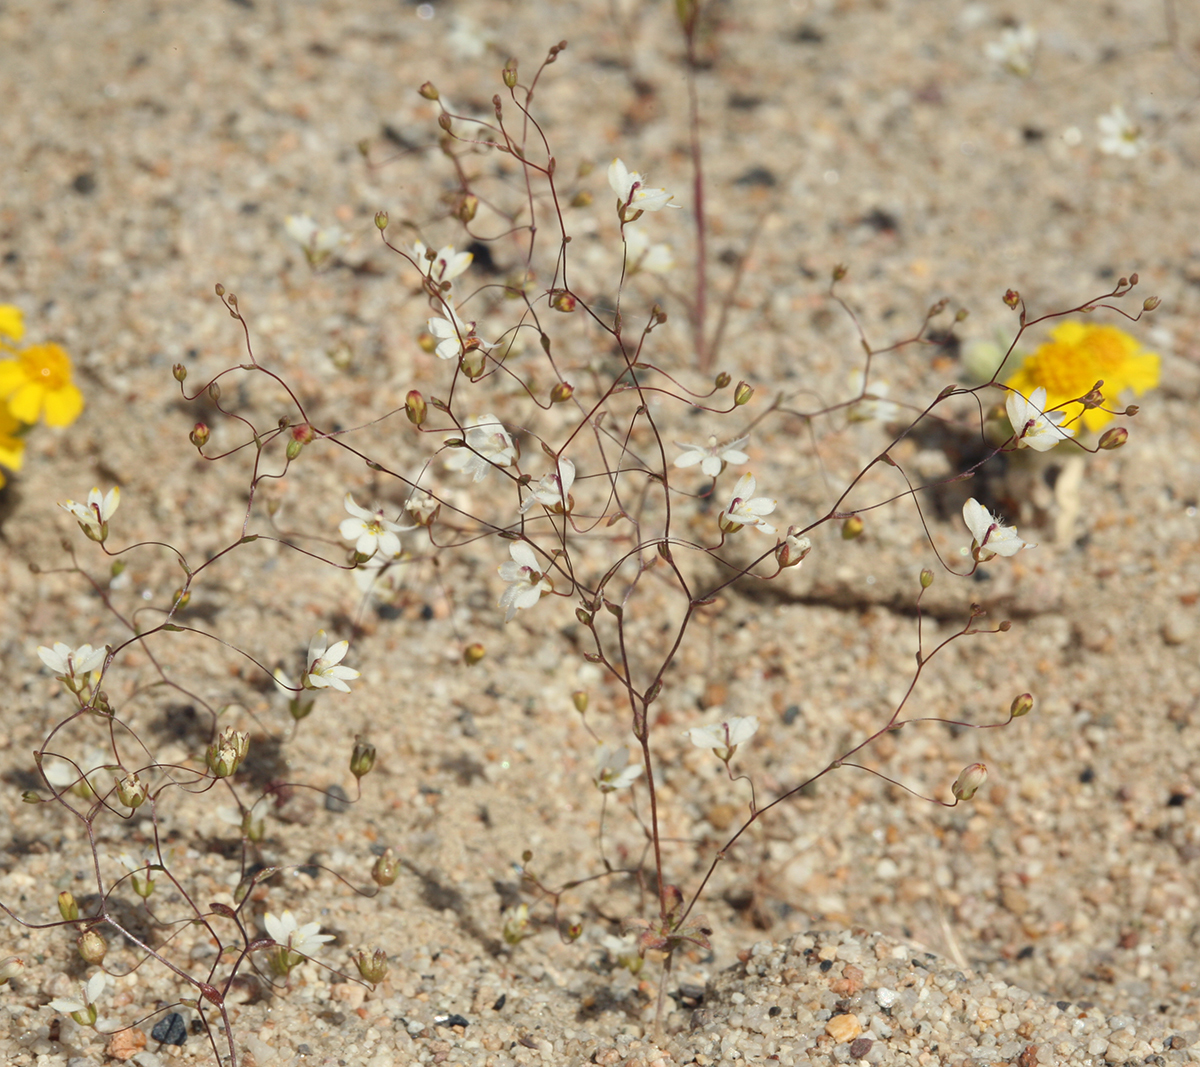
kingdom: Plantae
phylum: Tracheophyta
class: Magnoliopsida
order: Asterales
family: Campanulaceae
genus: Nemacladus
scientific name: Nemacladus matsonii
